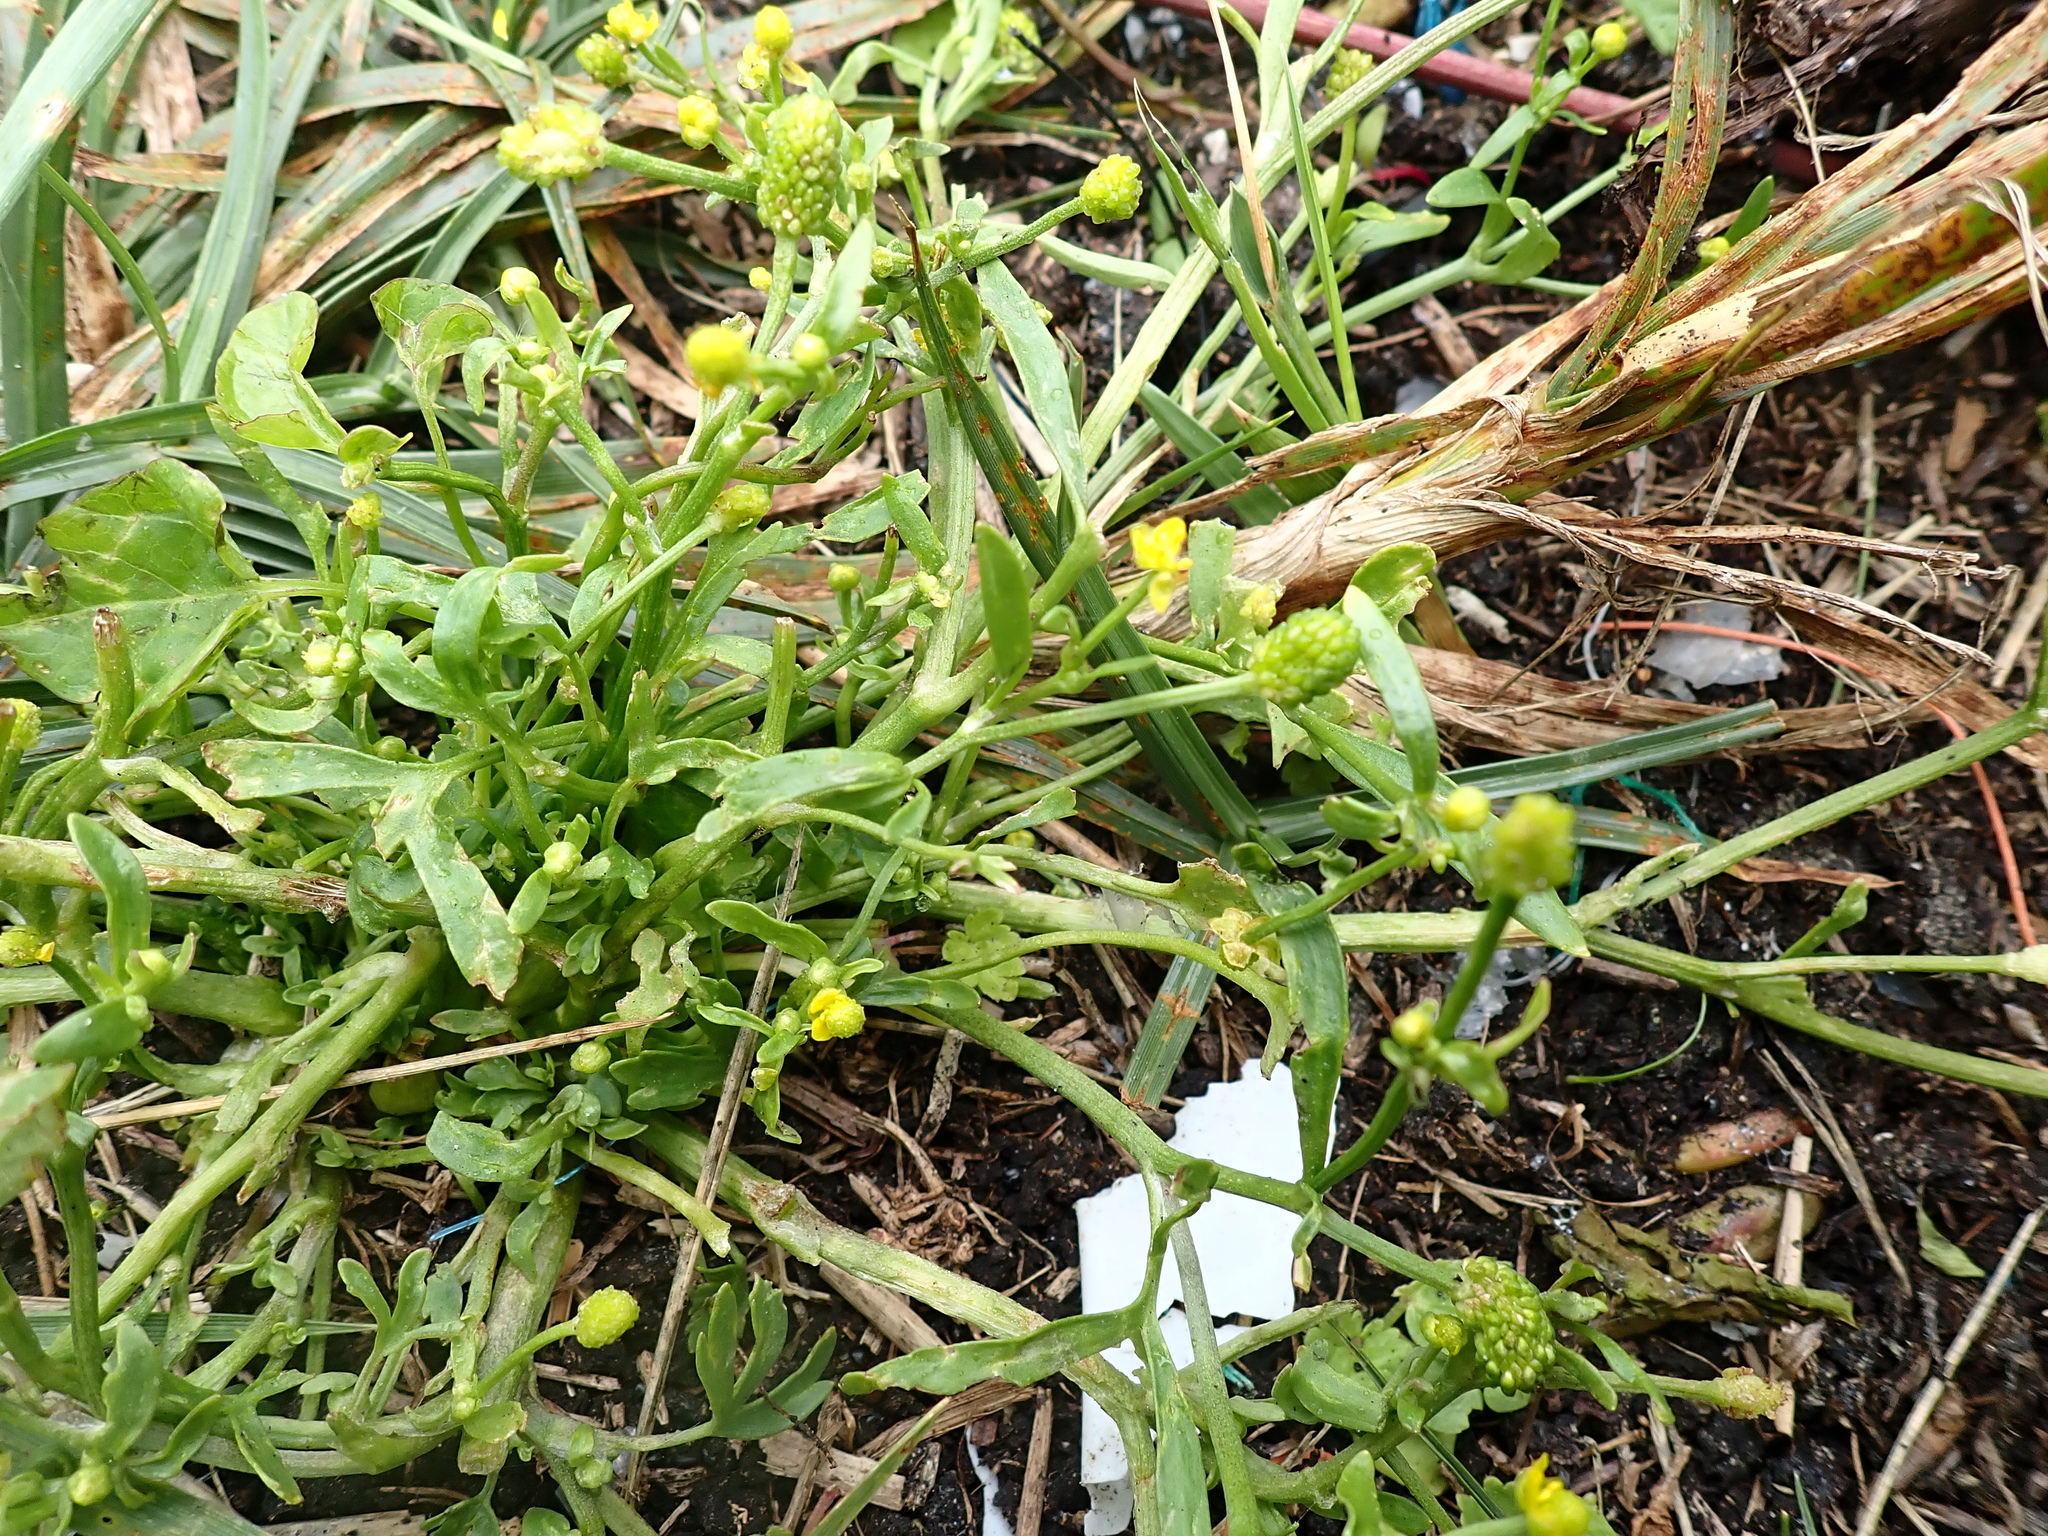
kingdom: Plantae
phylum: Tracheophyta
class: Magnoliopsida
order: Ranunculales
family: Ranunculaceae
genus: Ranunculus
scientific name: Ranunculus sceleratus
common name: Celery-leaved buttercup
